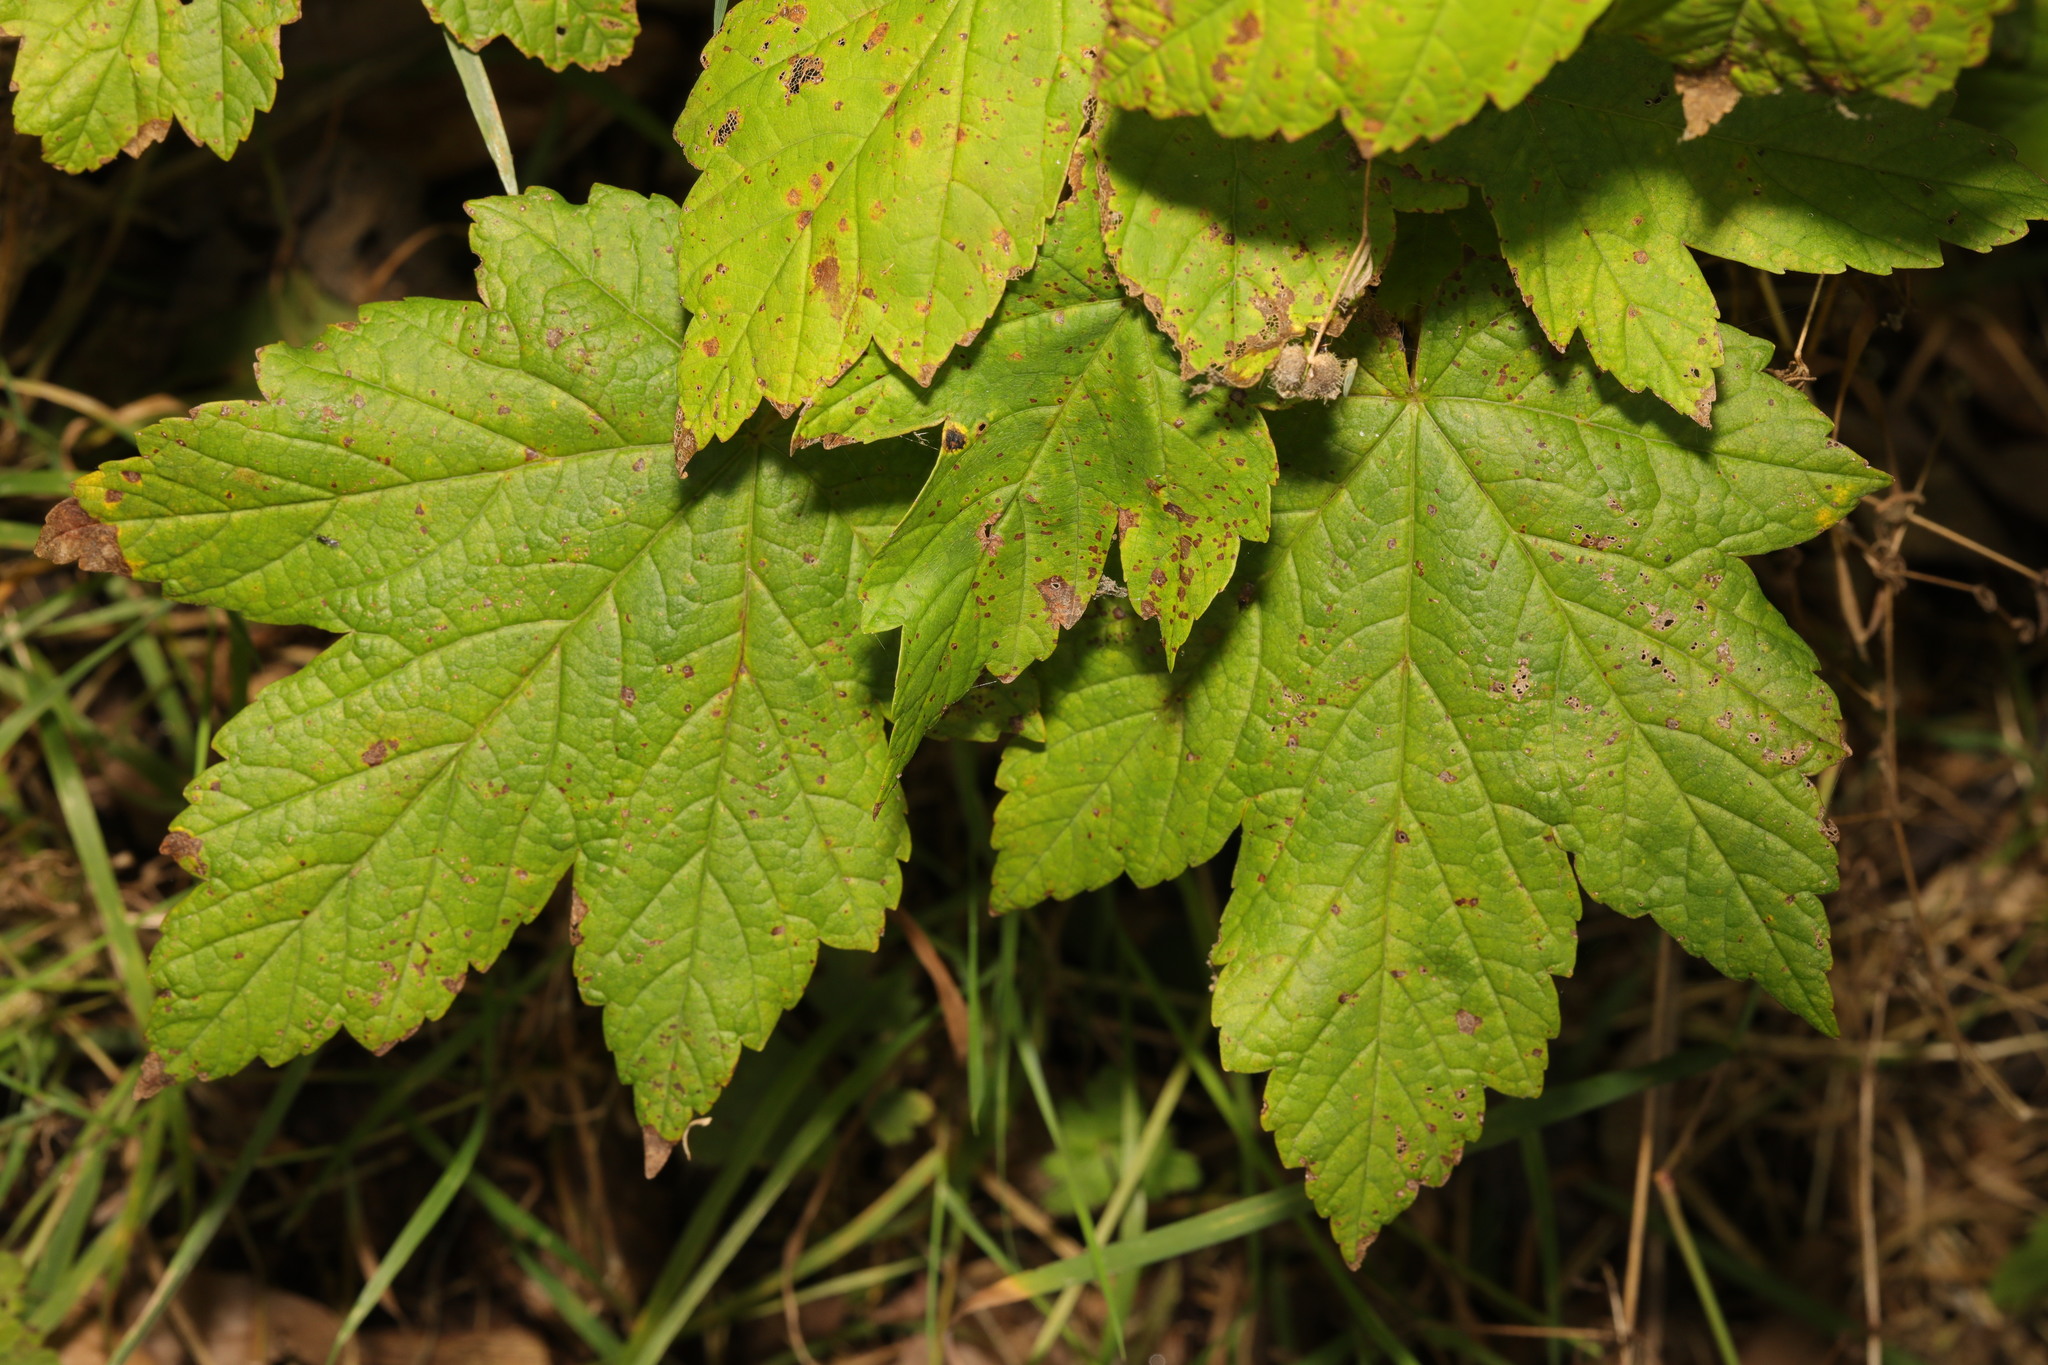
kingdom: Plantae
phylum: Tracheophyta
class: Magnoliopsida
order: Sapindales
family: Sapindaceae
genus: Acer
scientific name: Acer pseudoplatanus
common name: Sycamore
